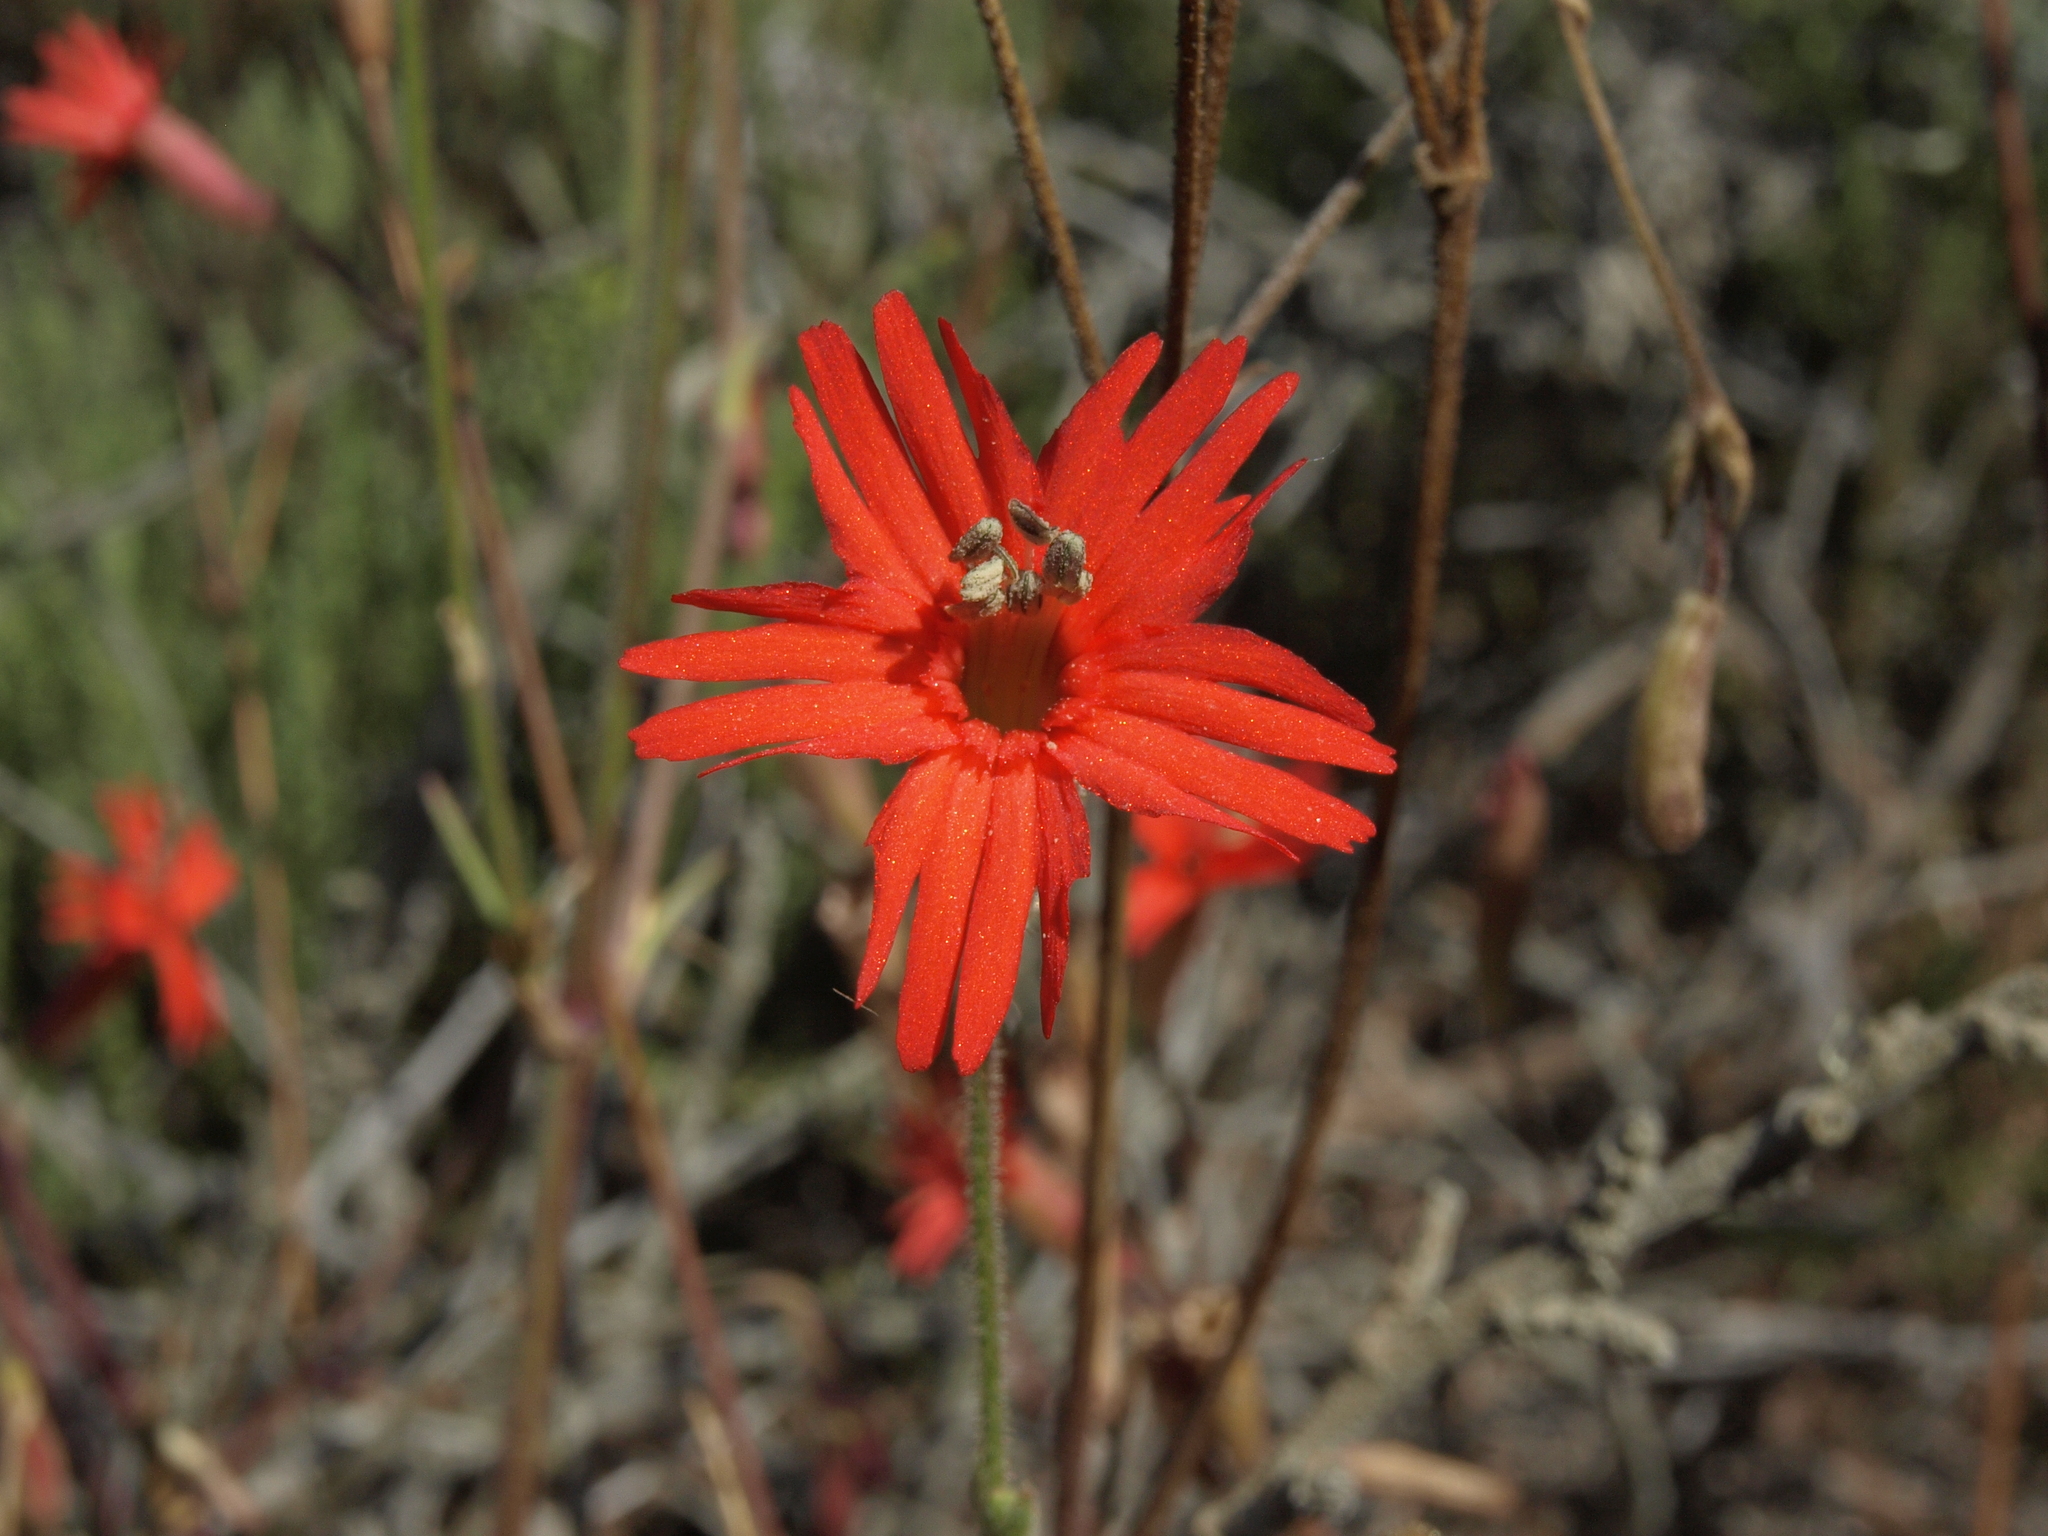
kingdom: Plantae
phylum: Tracheophyta
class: Magnoliopsida
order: Caryophyllales
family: Caryophyllaceae
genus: Silene
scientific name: Silene laciniata
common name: Indian-pink
